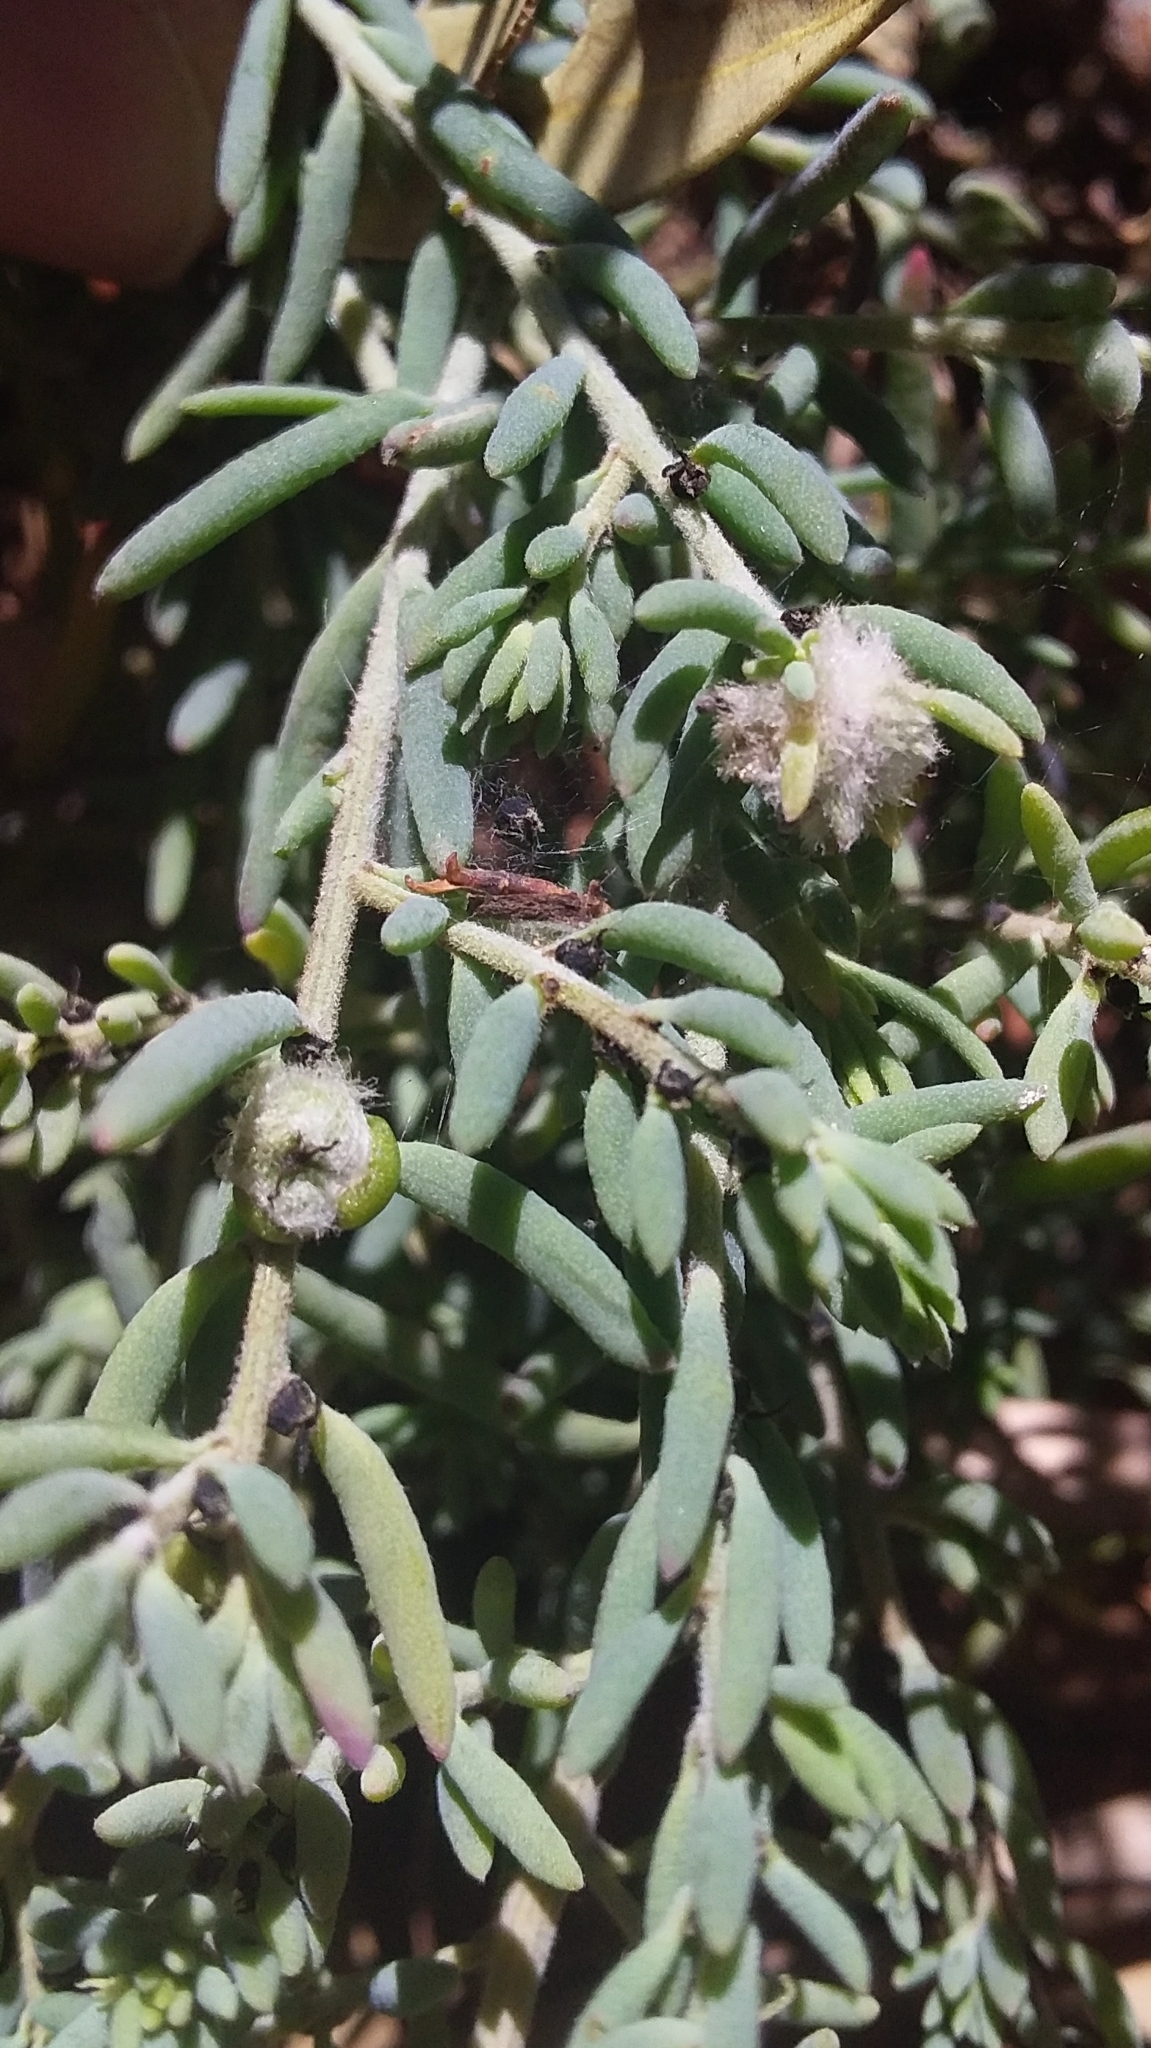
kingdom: Animalia
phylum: Arthropoda
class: Insecta
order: Diptera
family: Cecidomyiidae
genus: Asphondylia
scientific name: Asphondylia tonsura
